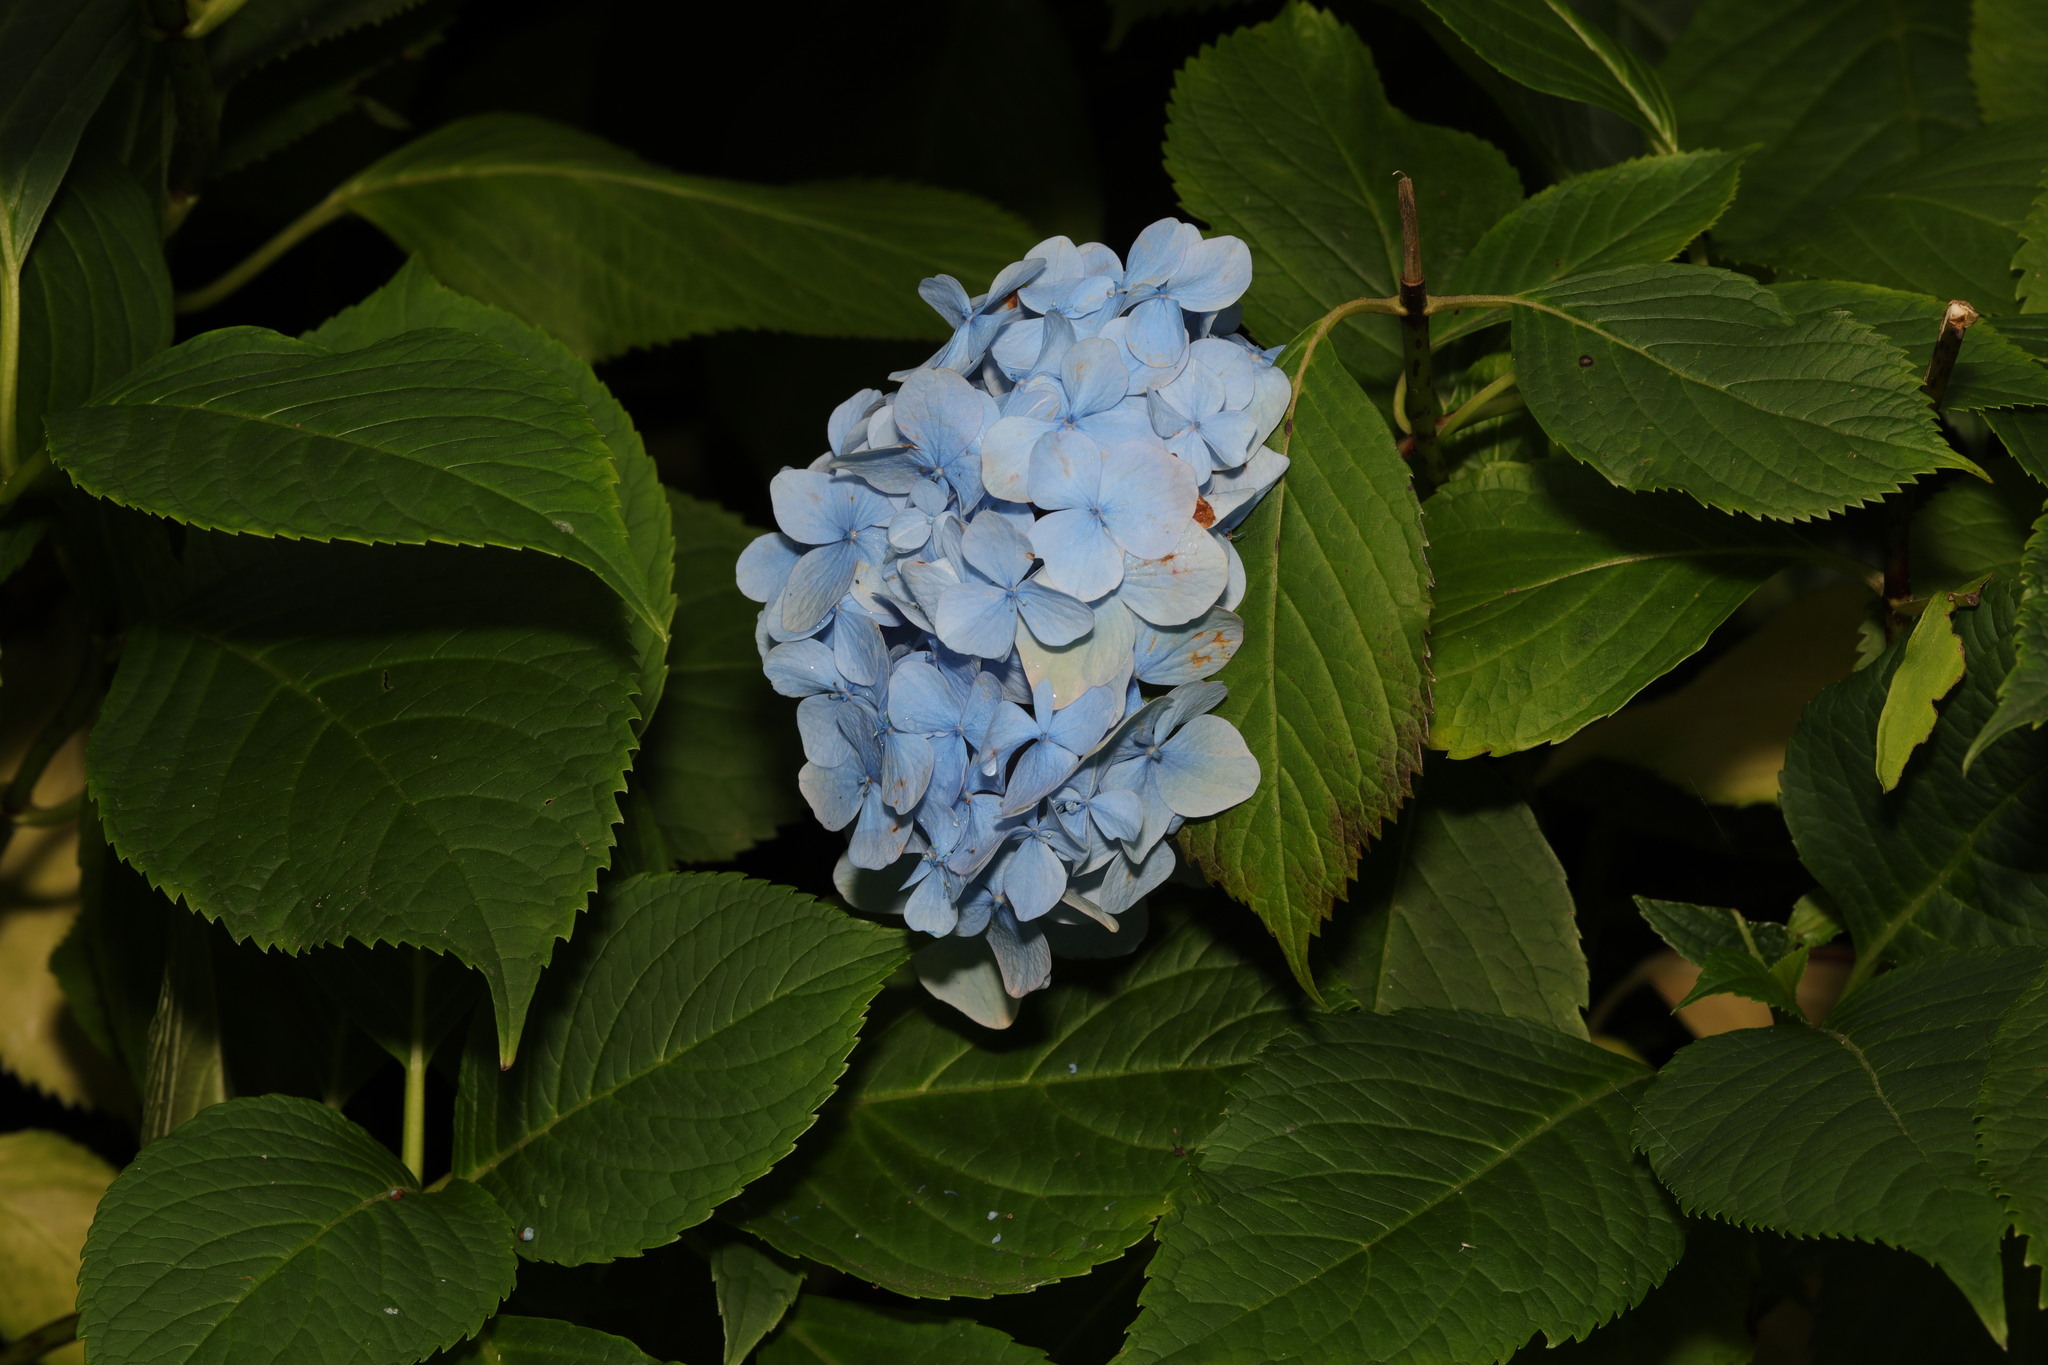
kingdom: Plantae
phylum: Tracheophyta
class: Magnoliopsida
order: Cornales
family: Hydrangeaceae
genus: Hydrangea
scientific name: Hydrangea macrophylla
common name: Hydrangea
